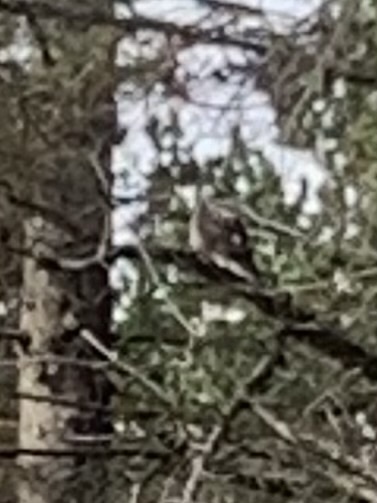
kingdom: Animalia
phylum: Chordata
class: Aves
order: Accipitriformes
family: Accipitridae
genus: Accipiter
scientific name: Accipiter gentilis
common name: Northern goshawk
